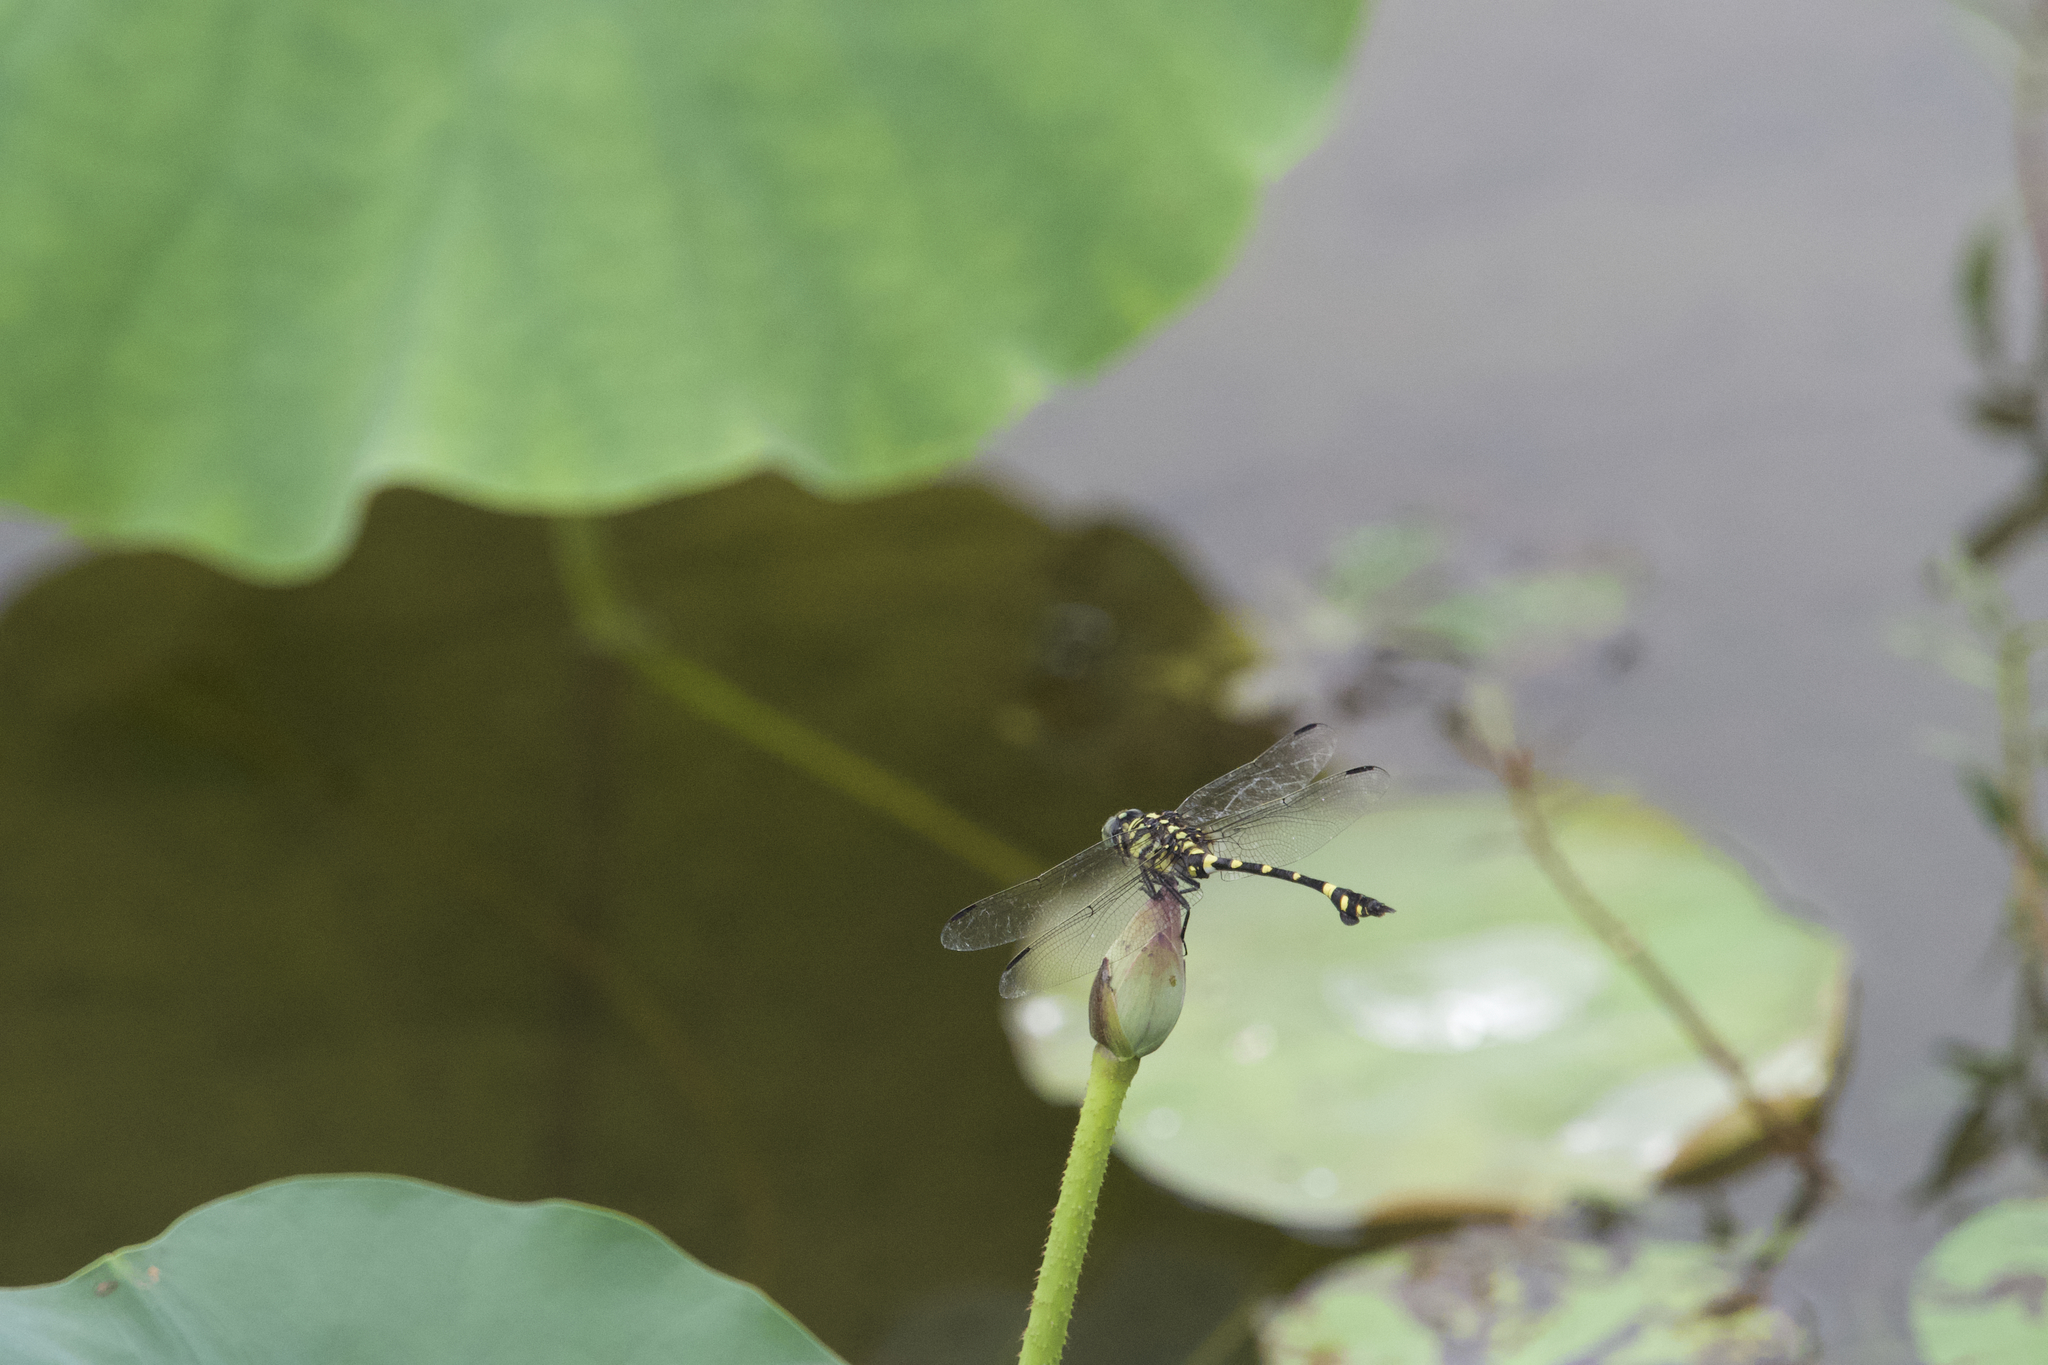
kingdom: Animalia
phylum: Arthropoda
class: Insecta
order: Odonata
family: Gomphidae
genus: Ictinogomphus
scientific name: Ictinogomphus pertinax
